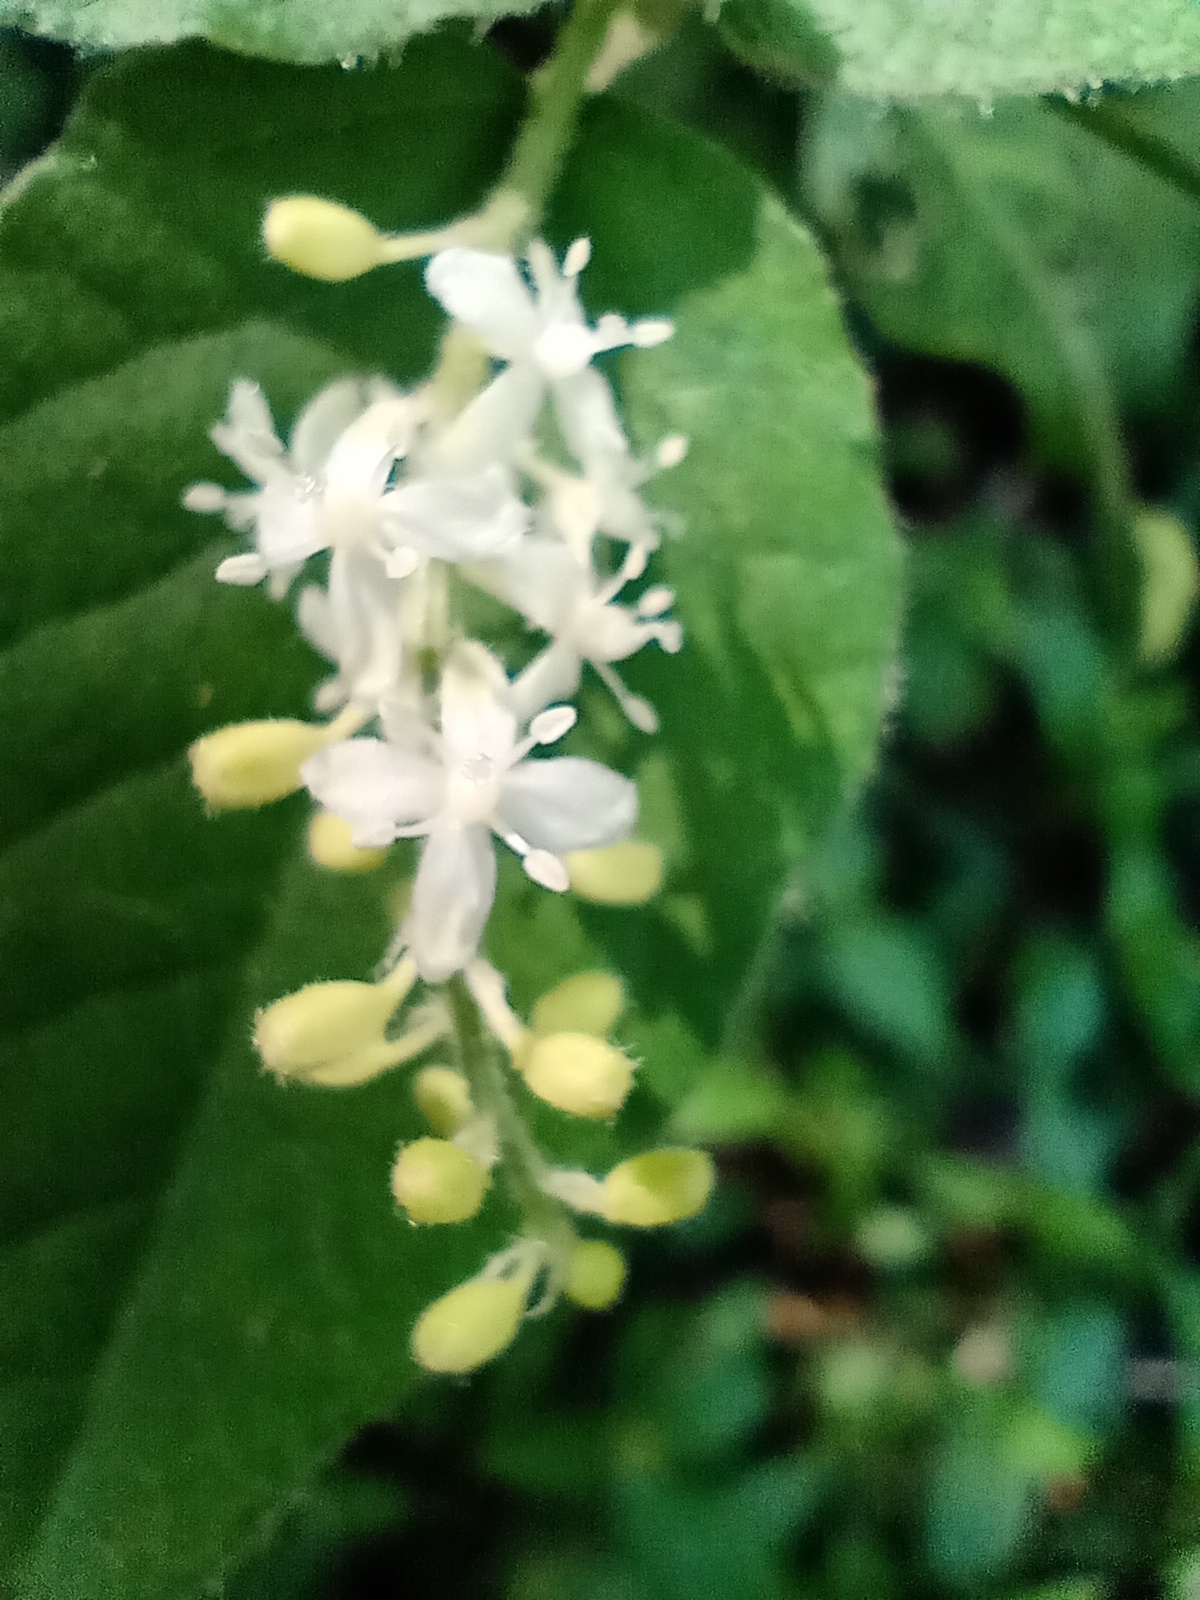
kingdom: Plantae
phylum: Tracheophyta
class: Magnoliopsida
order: Caryophyllales
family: Phytolaccaceae
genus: Rivina
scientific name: Rivina humilis
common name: Rougeplant
